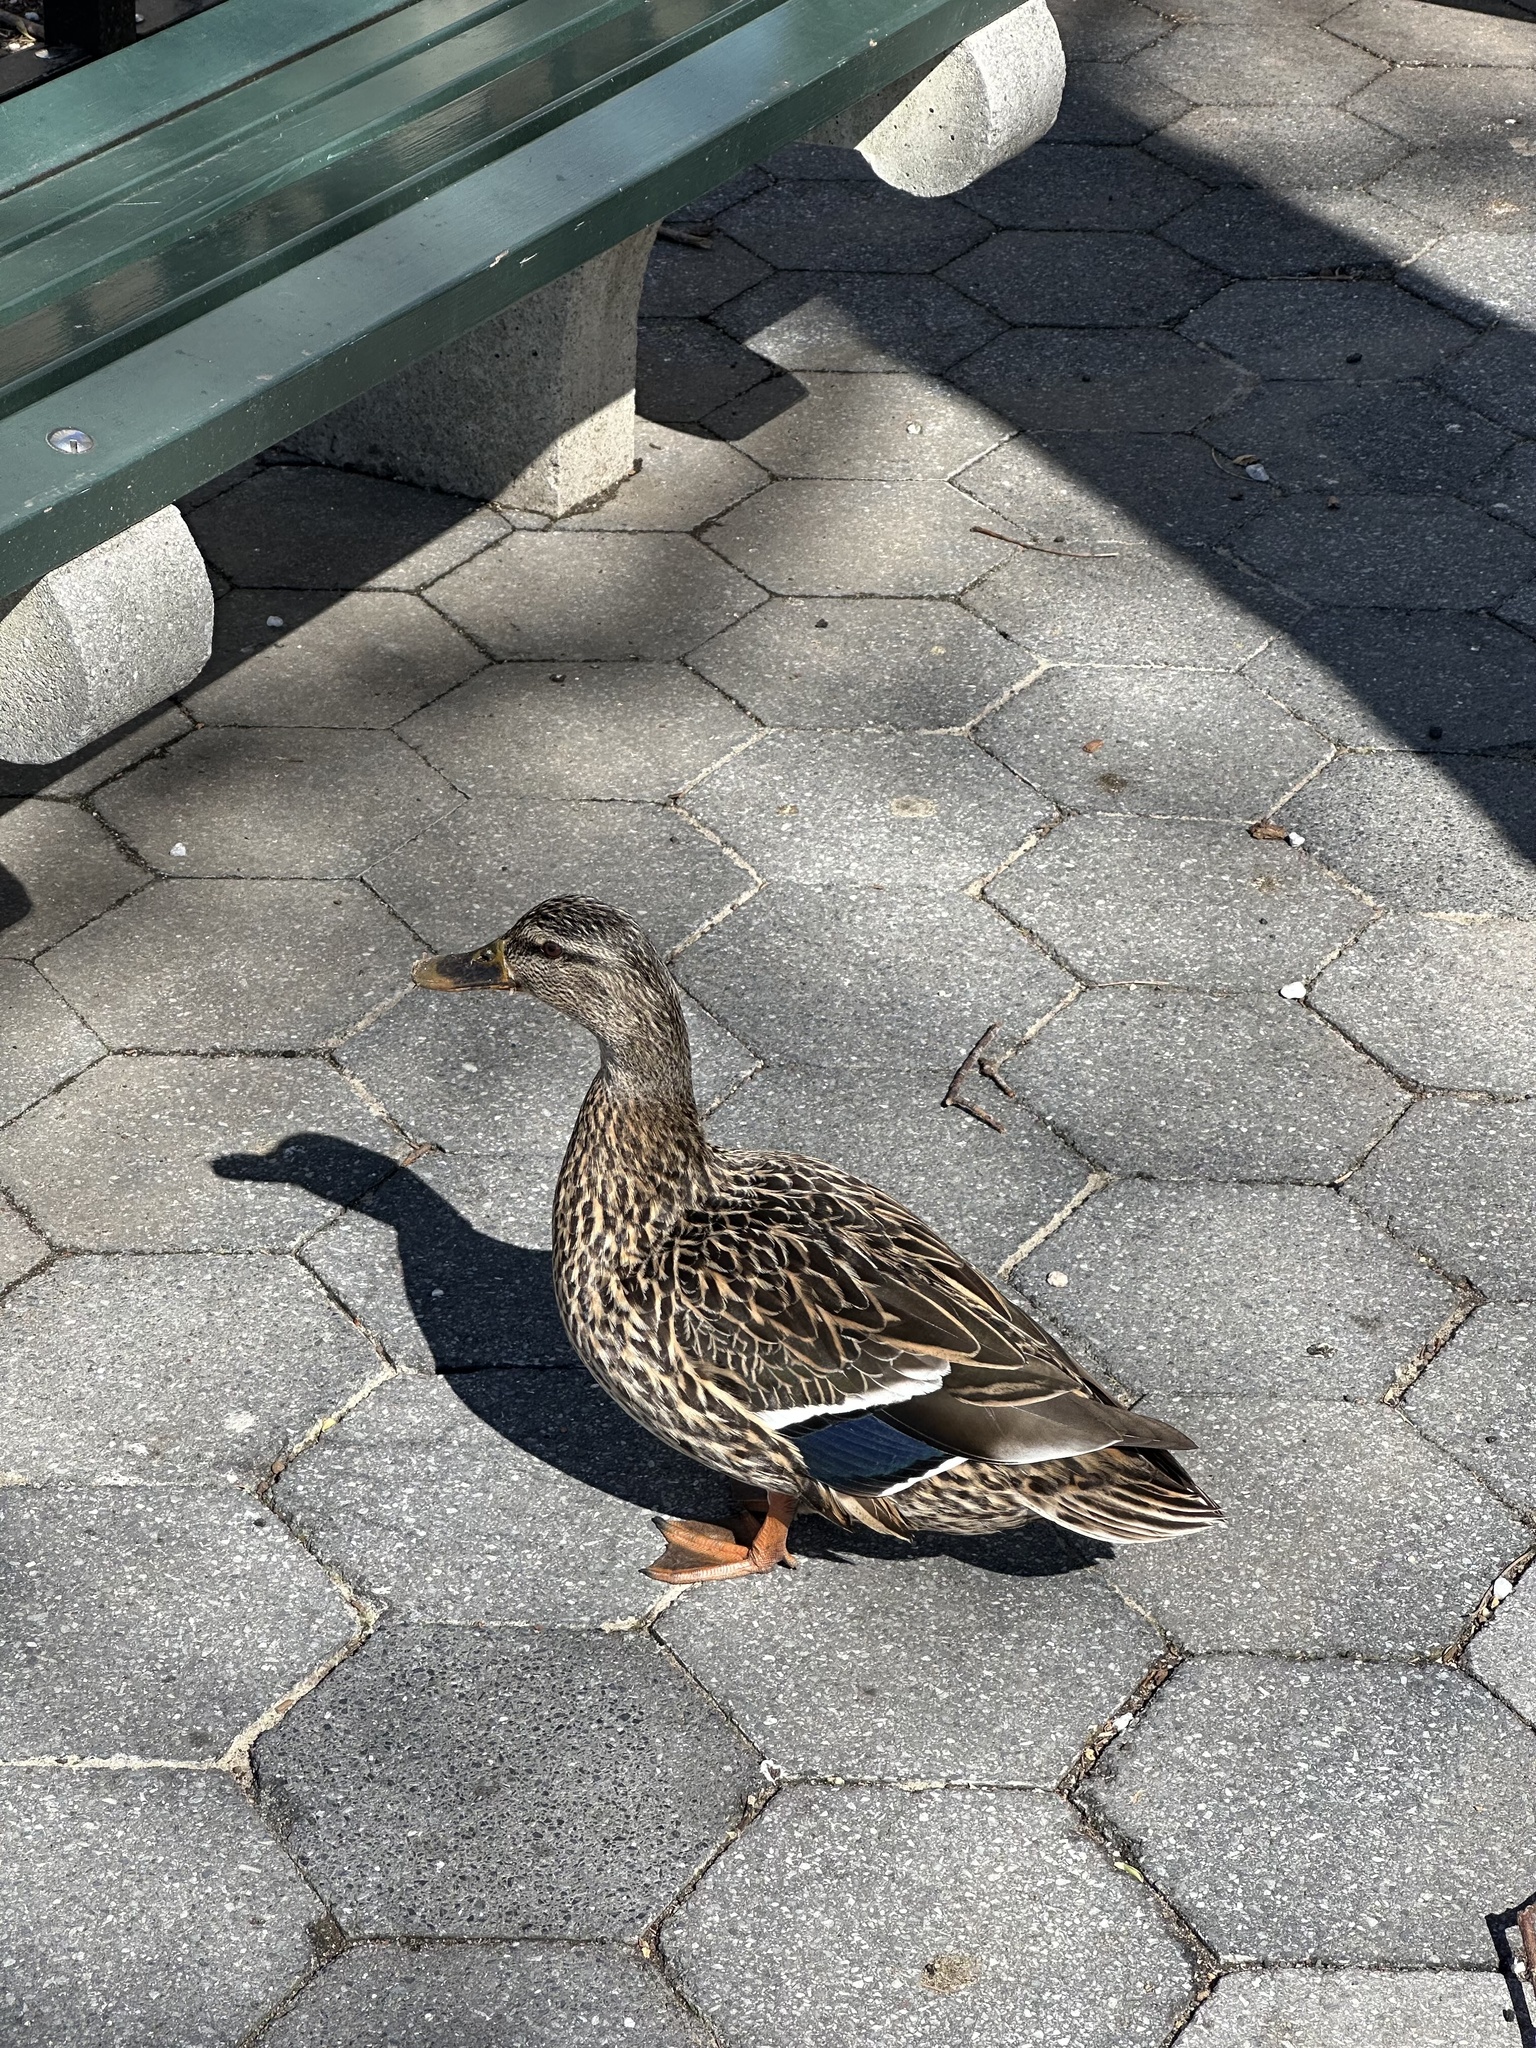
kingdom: Animalia
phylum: Chordata
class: Aves
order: Anseriformes
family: Anatidae
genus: Anas
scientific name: Anas platyrhynchos
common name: Mallard
